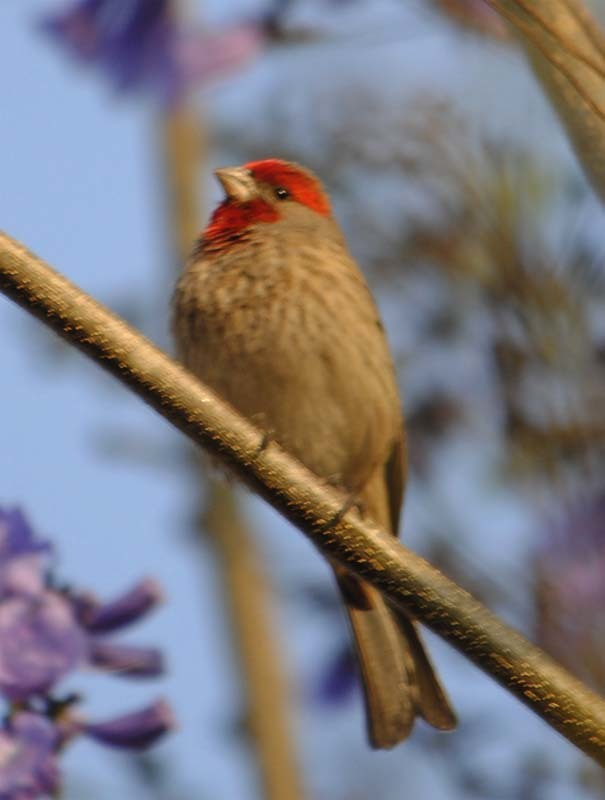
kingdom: Animalia
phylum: Chordata
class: Aves
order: Passeriformes
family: Fringillidae
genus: Haemorhous
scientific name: Haemorhous mexicanus
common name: House finch
